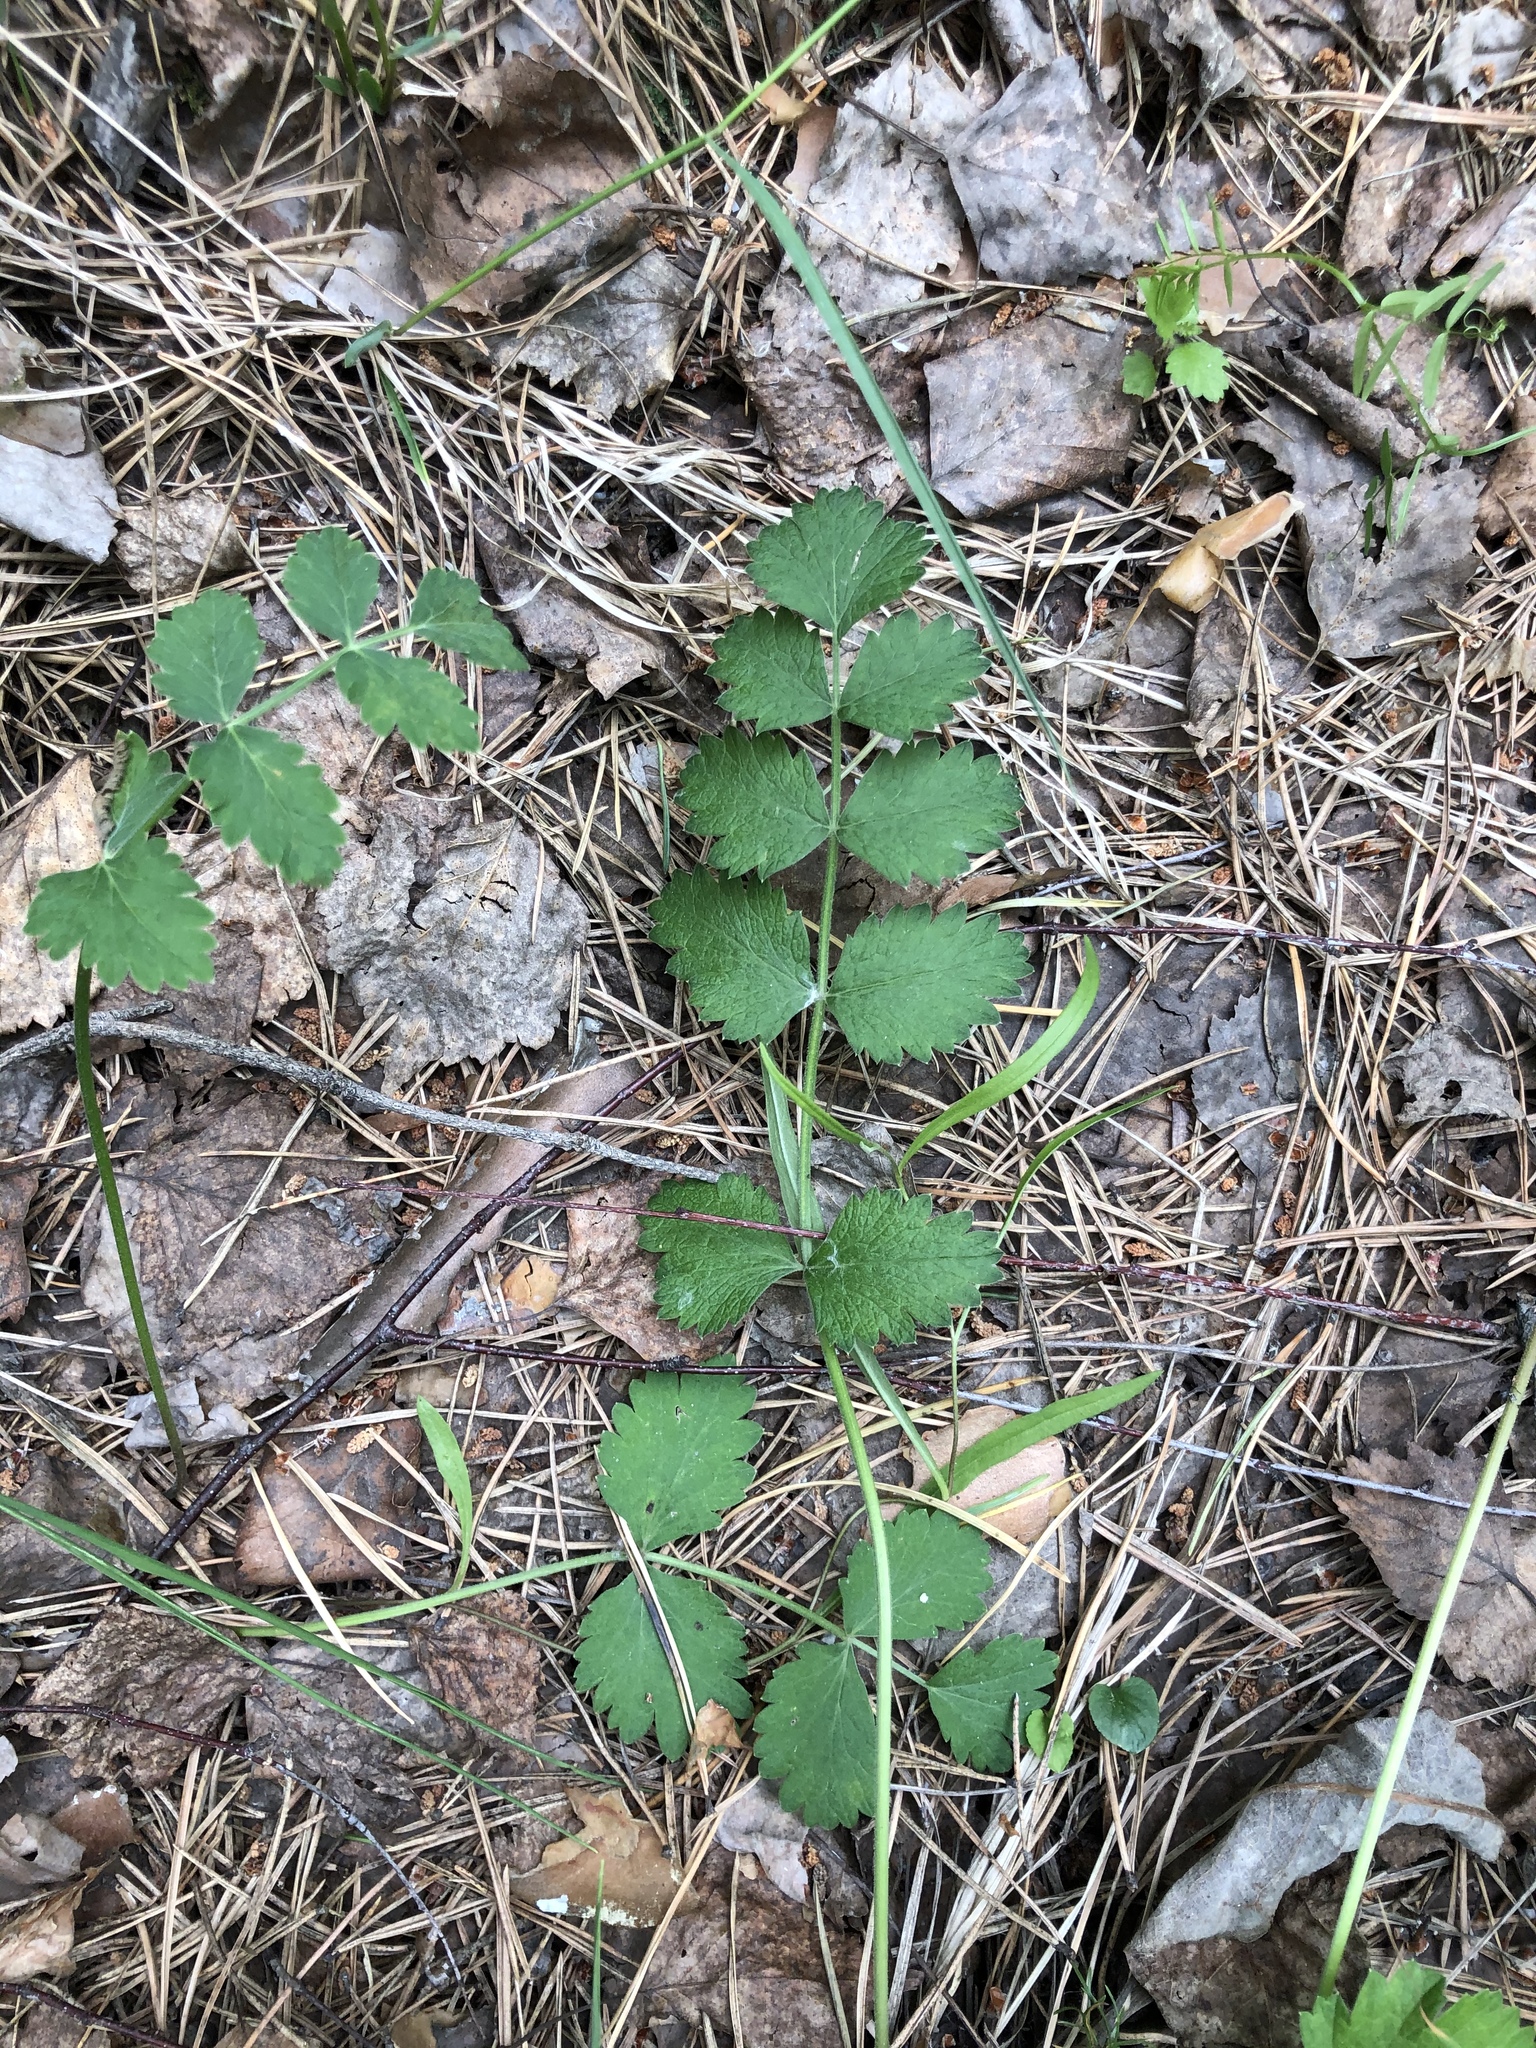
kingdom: Plantae
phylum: Tracheophyta
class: Magnoliopsida
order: Apiales
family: Apiaceae
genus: Pimpinella
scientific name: Pimpinella saxifraga
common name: Burnet-saxifrage
